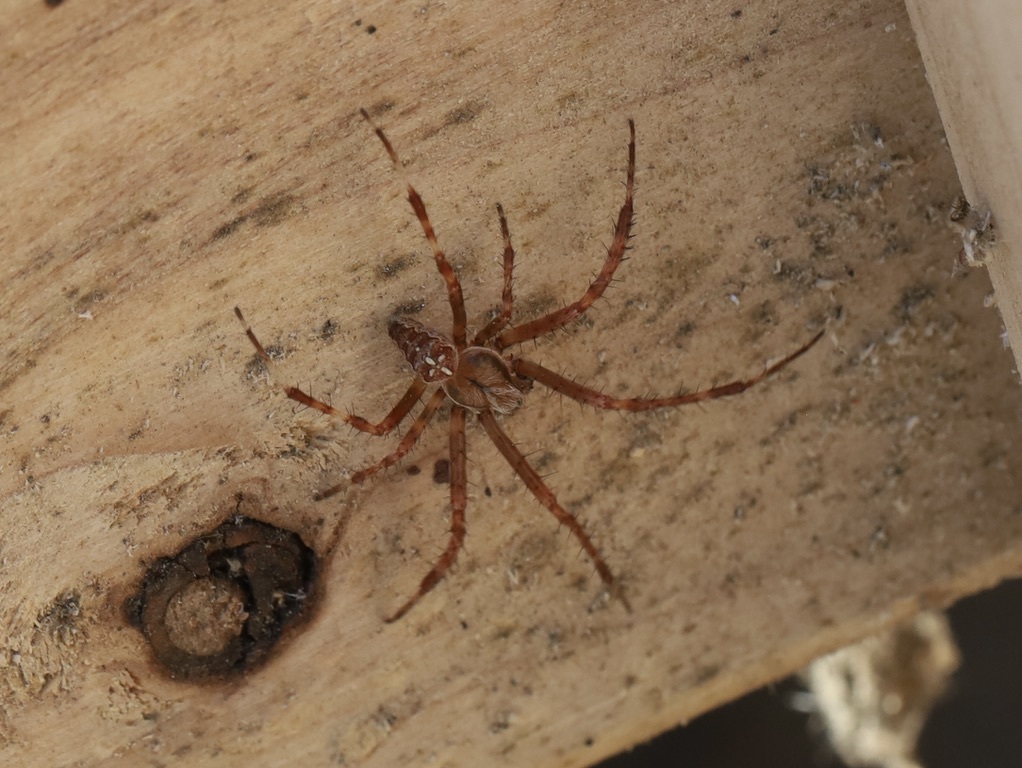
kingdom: Animalia
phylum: Arthropoda
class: Arachnida
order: Araneae
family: Araneidae
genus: Araneus
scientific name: Araneus diadematus
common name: Cross orbweaver
